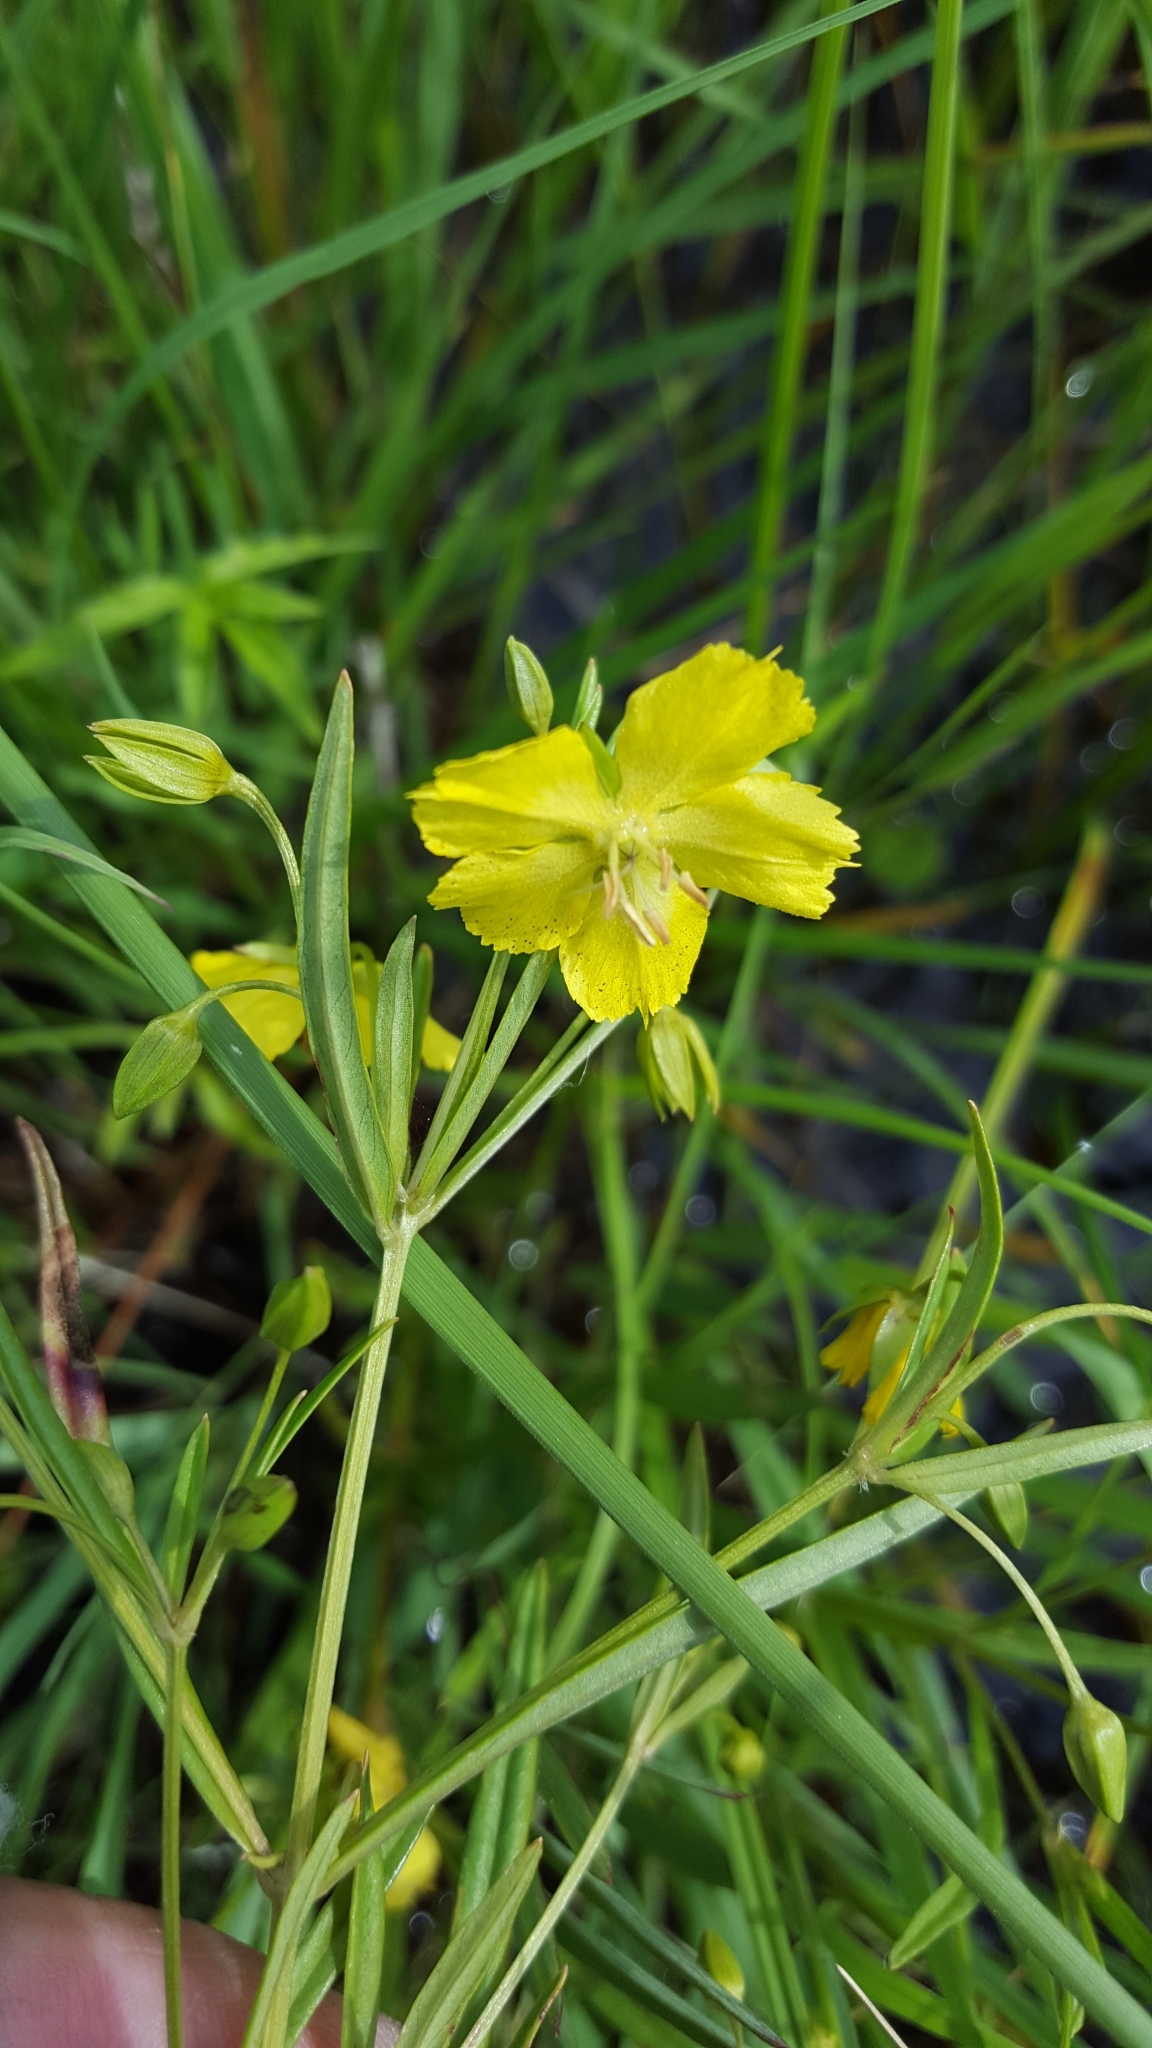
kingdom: Plantae
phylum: Tracheophyta
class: Magnoliopsida
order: Ericales
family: Primulaceae
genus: Lysimachia
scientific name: Lysimachia quadriflora
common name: Four-flowered loosestrife
